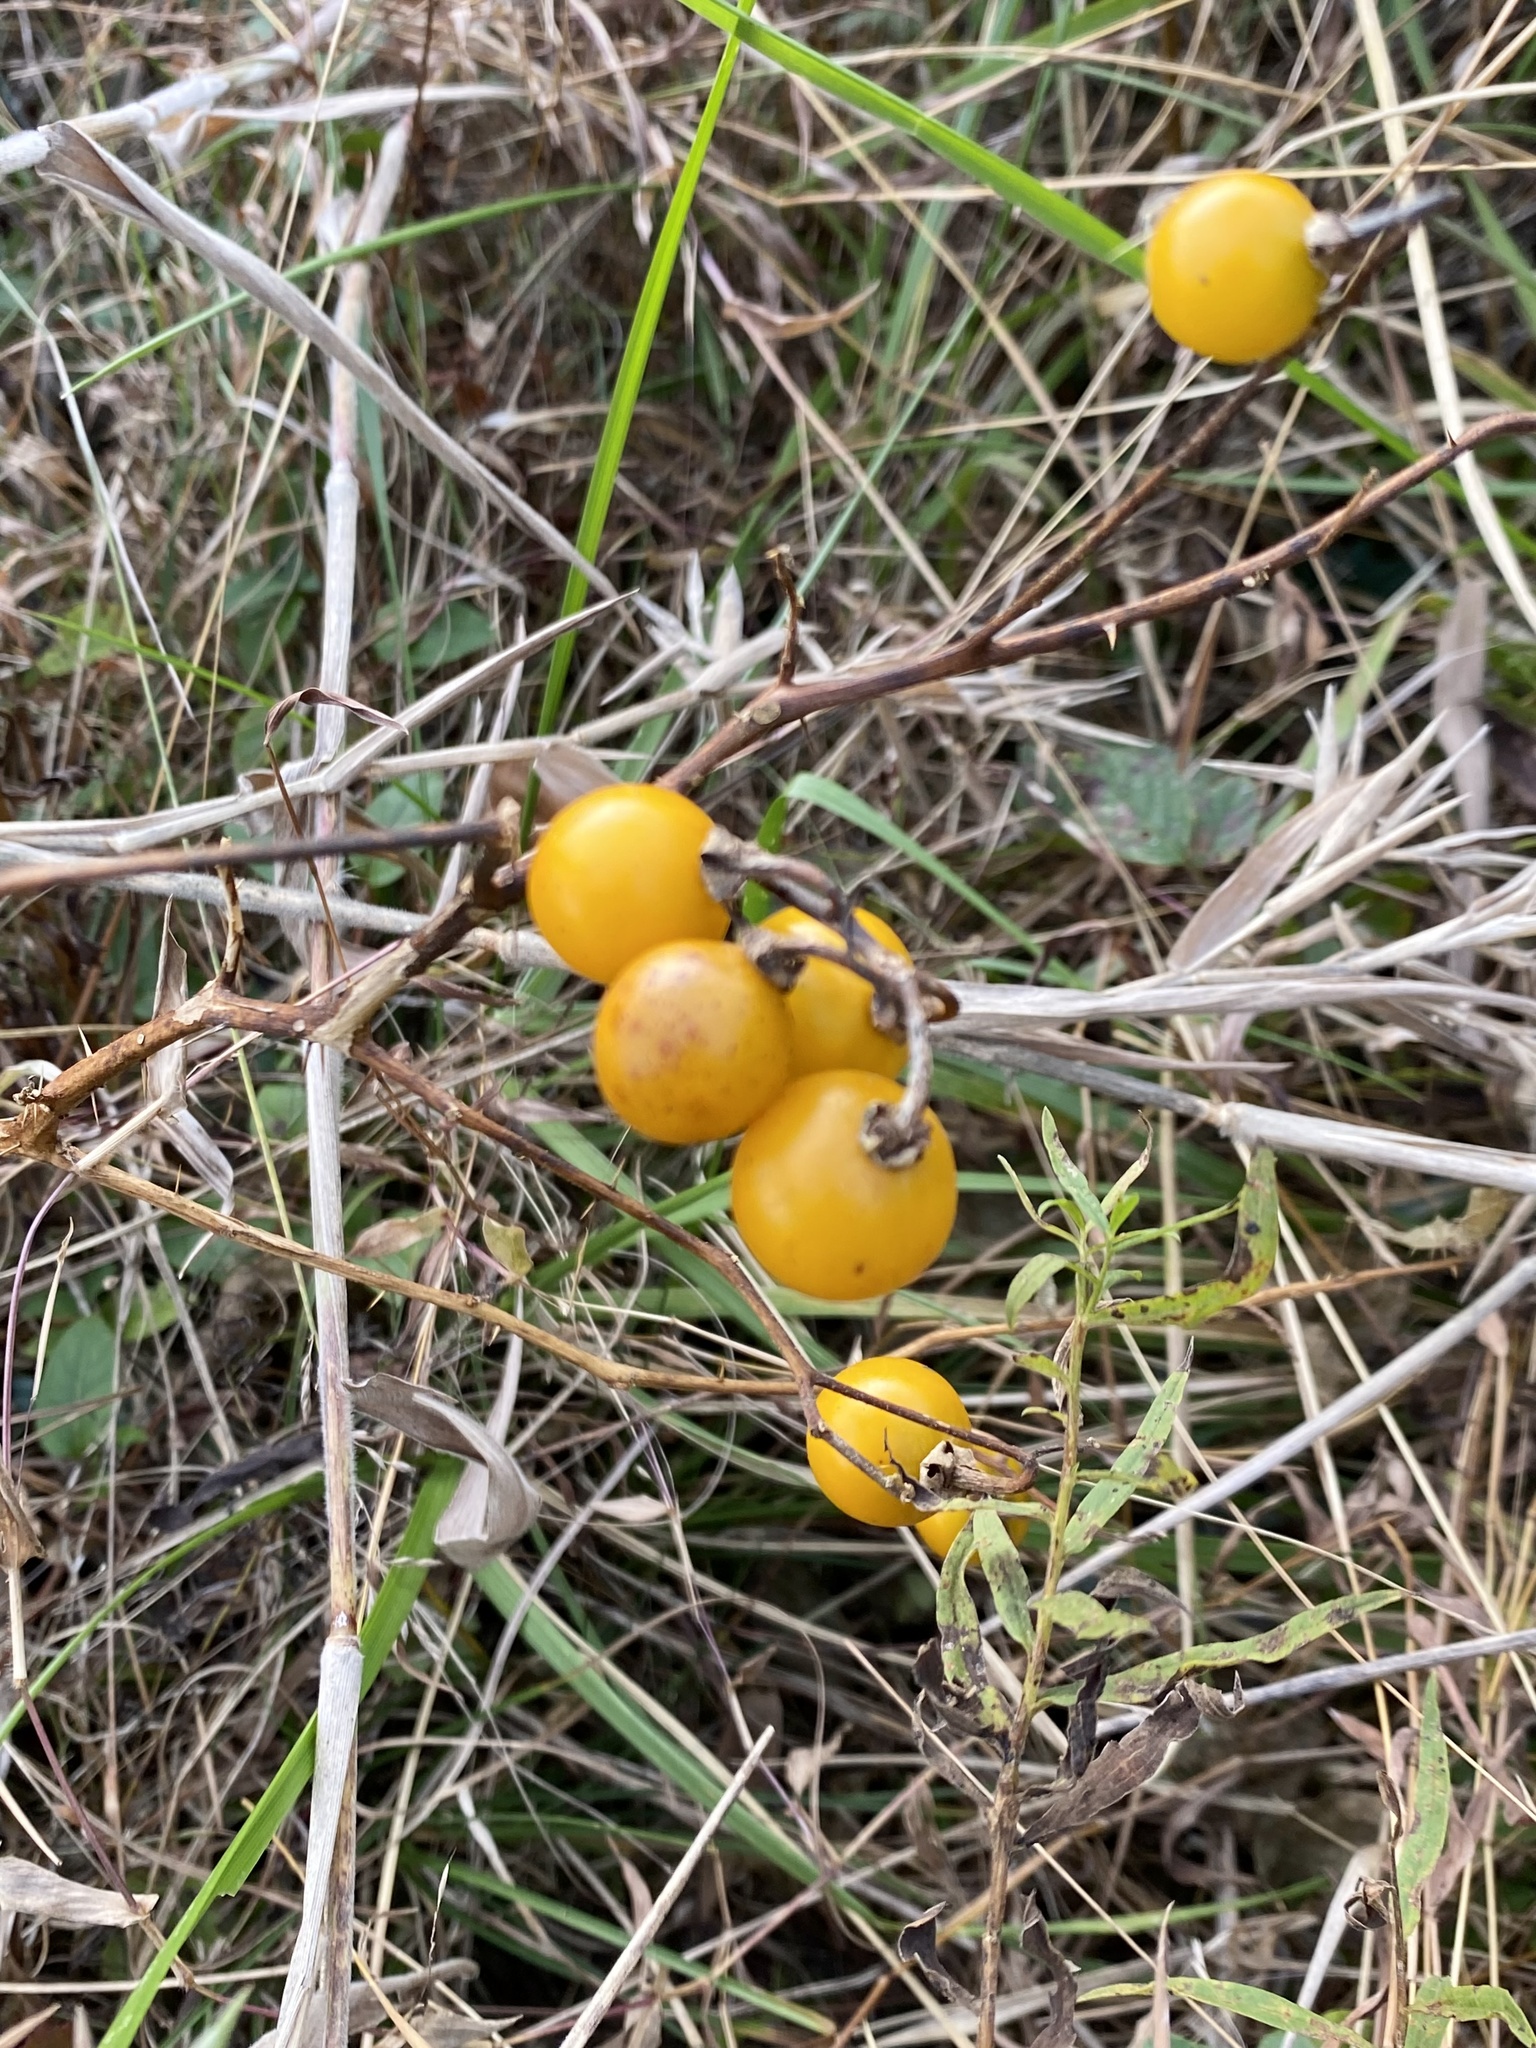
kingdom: Plantae
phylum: Tracheophyta
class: Magnoliopsida
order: Solanales
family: Solanaceae
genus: Solanum
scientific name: Solanum carolinense
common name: Horse-nettle
